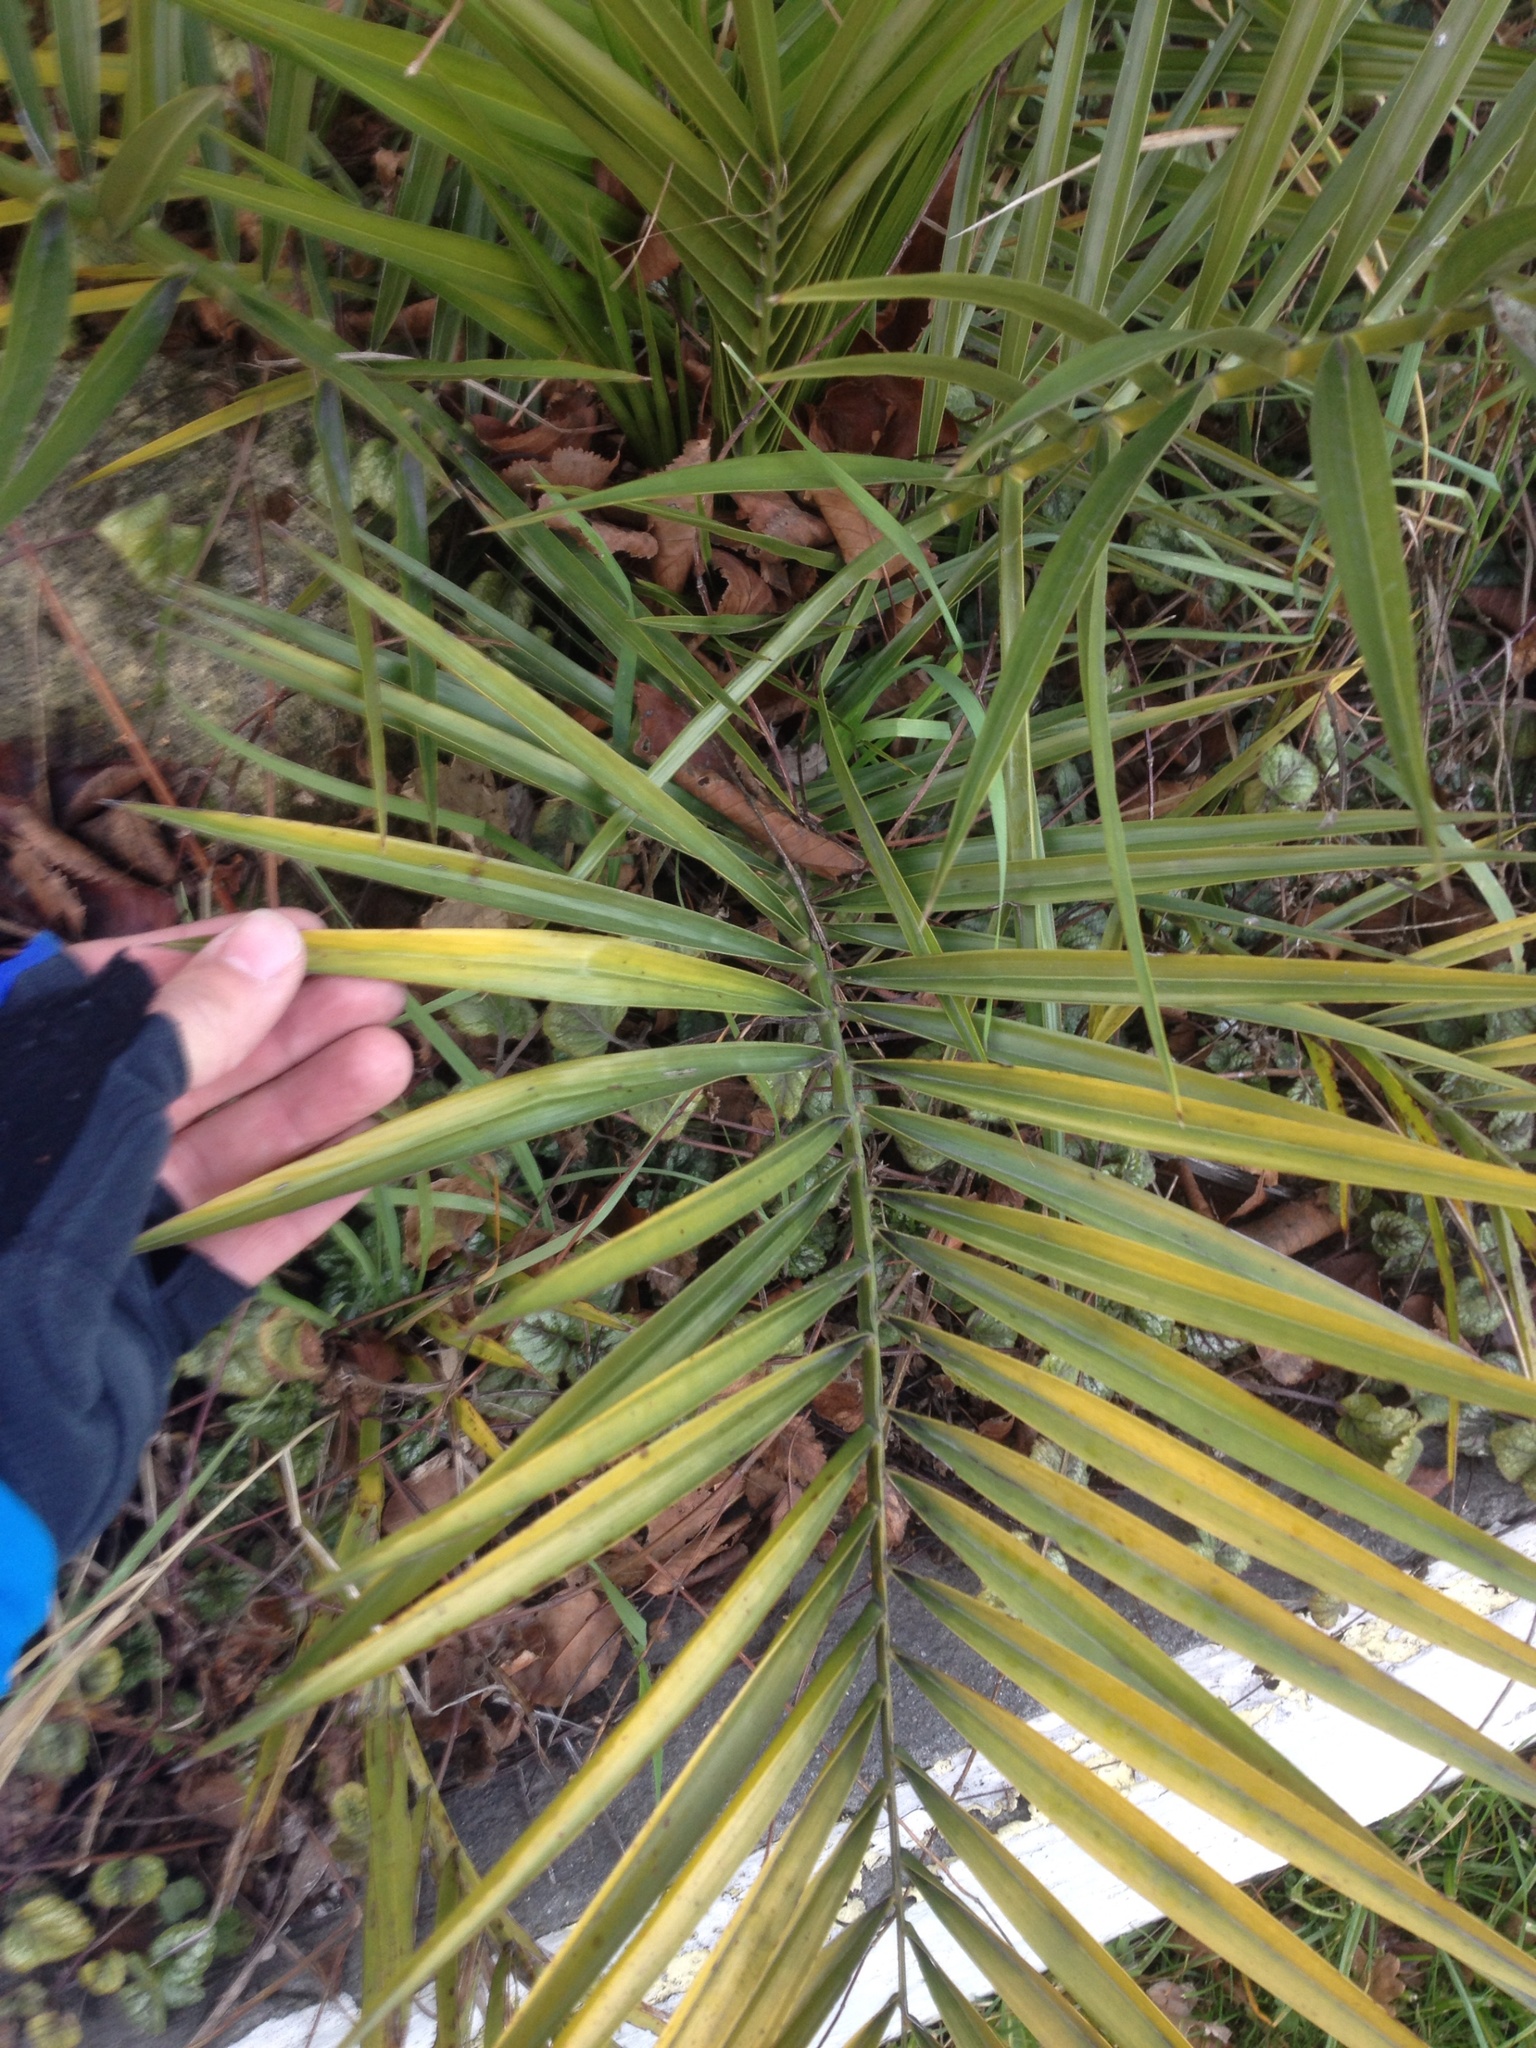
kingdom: Plantae
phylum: Tracheophyta
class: Liliopsida
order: Arecales
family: Arecaceae
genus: Phoenix
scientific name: Phoenix canariensis
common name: Canary island date palm
